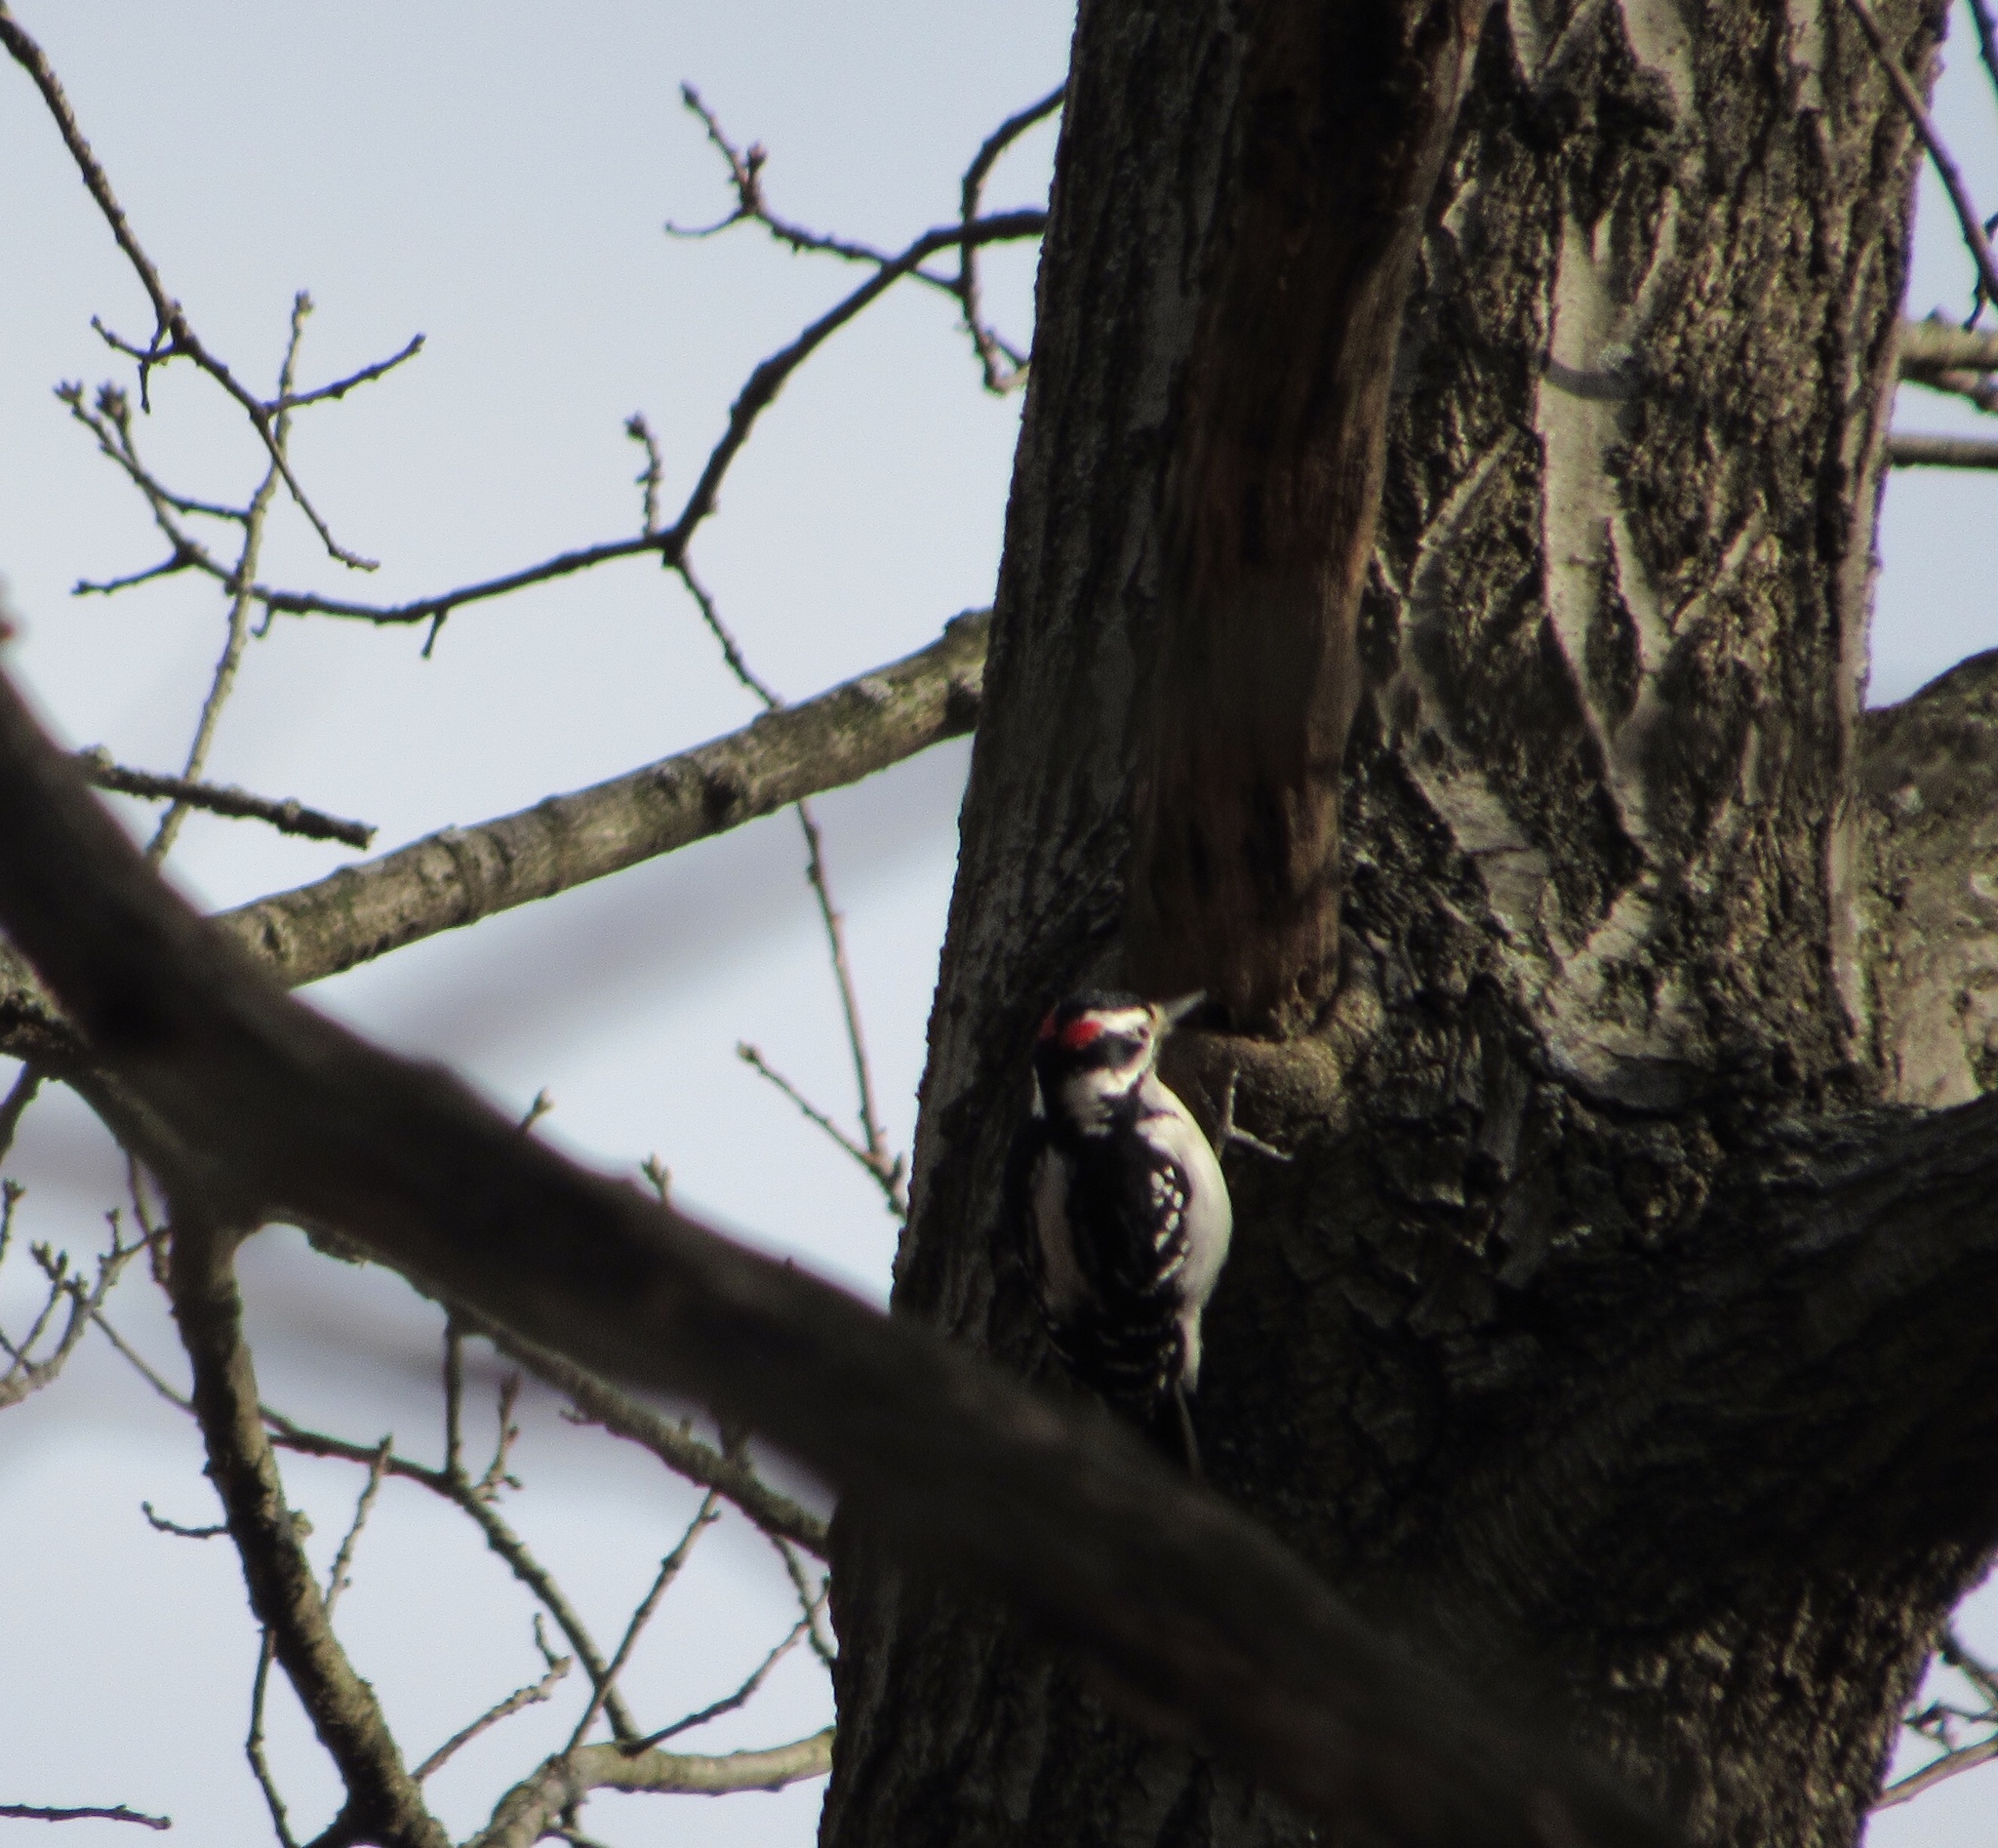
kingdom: Animalia
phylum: Chordata
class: Aves
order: Piciformes
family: Picidae
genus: Leuconotopicus
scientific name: Leuconotopicus villosus
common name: Hairy woodpecker
